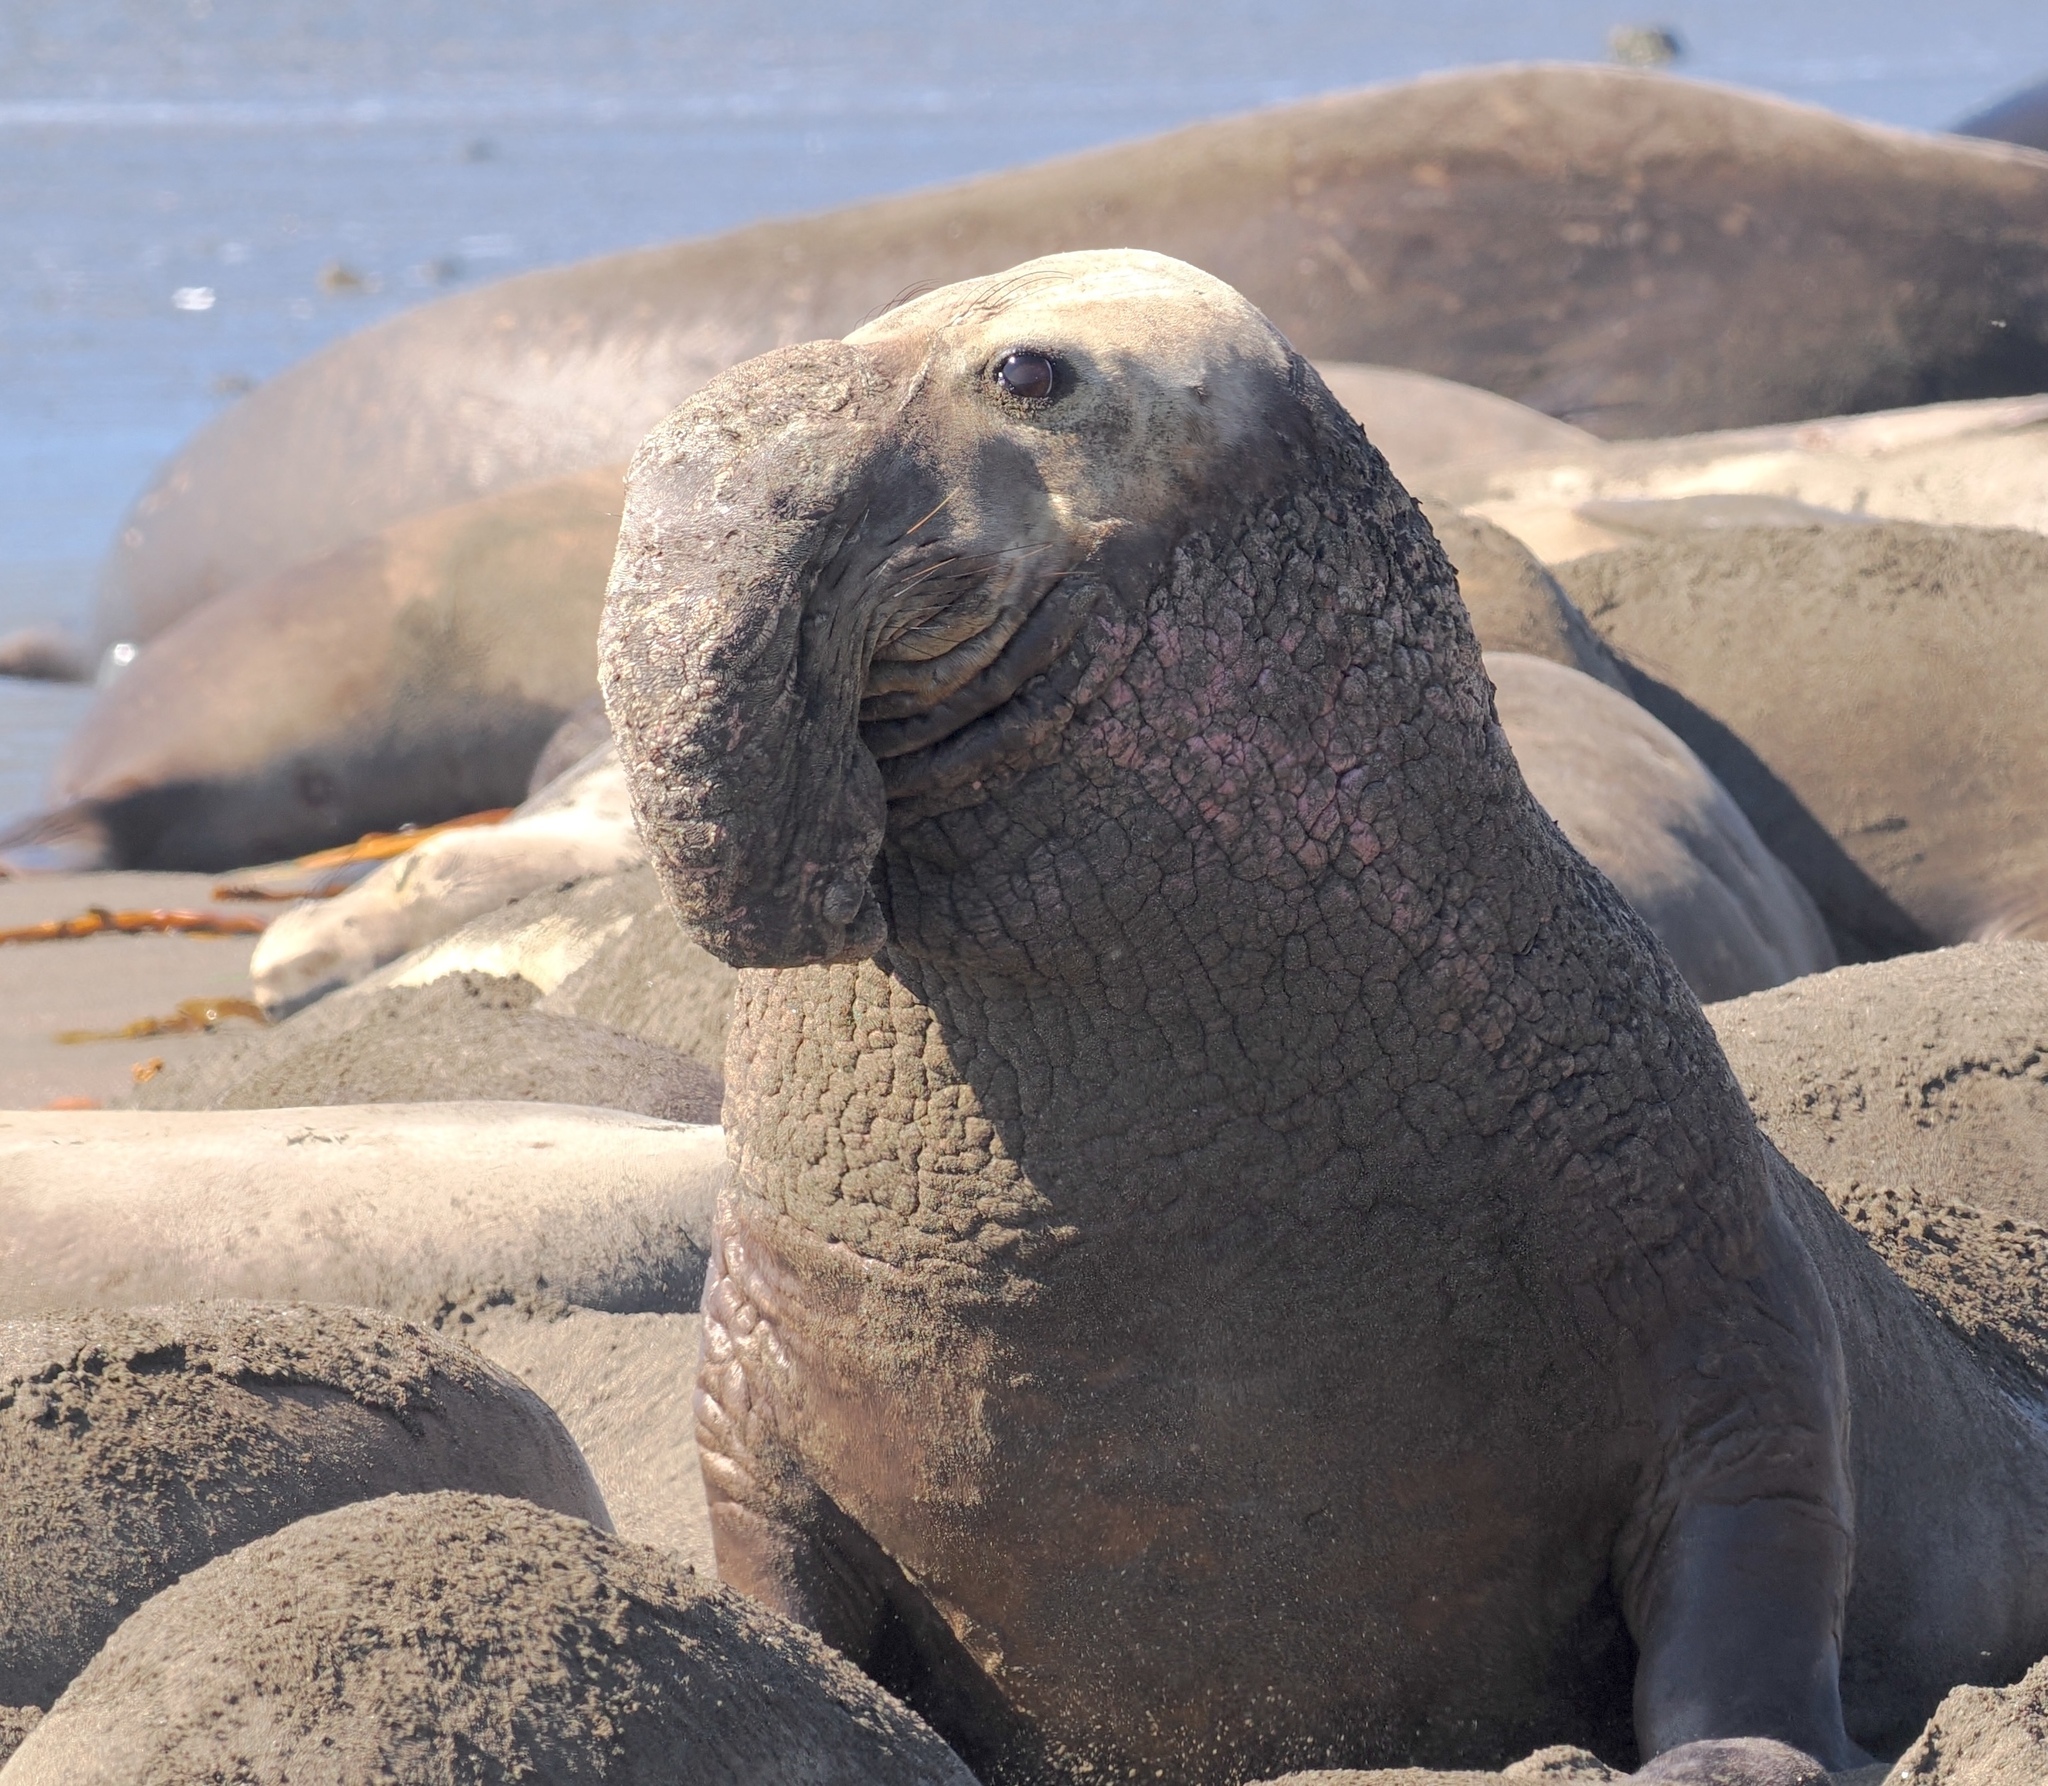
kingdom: Animalia
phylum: Chordata
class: Mammalia
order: Carnivora
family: Phocidae
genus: Mirounga
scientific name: Mirounga angustirostris
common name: Northern elephant seal
